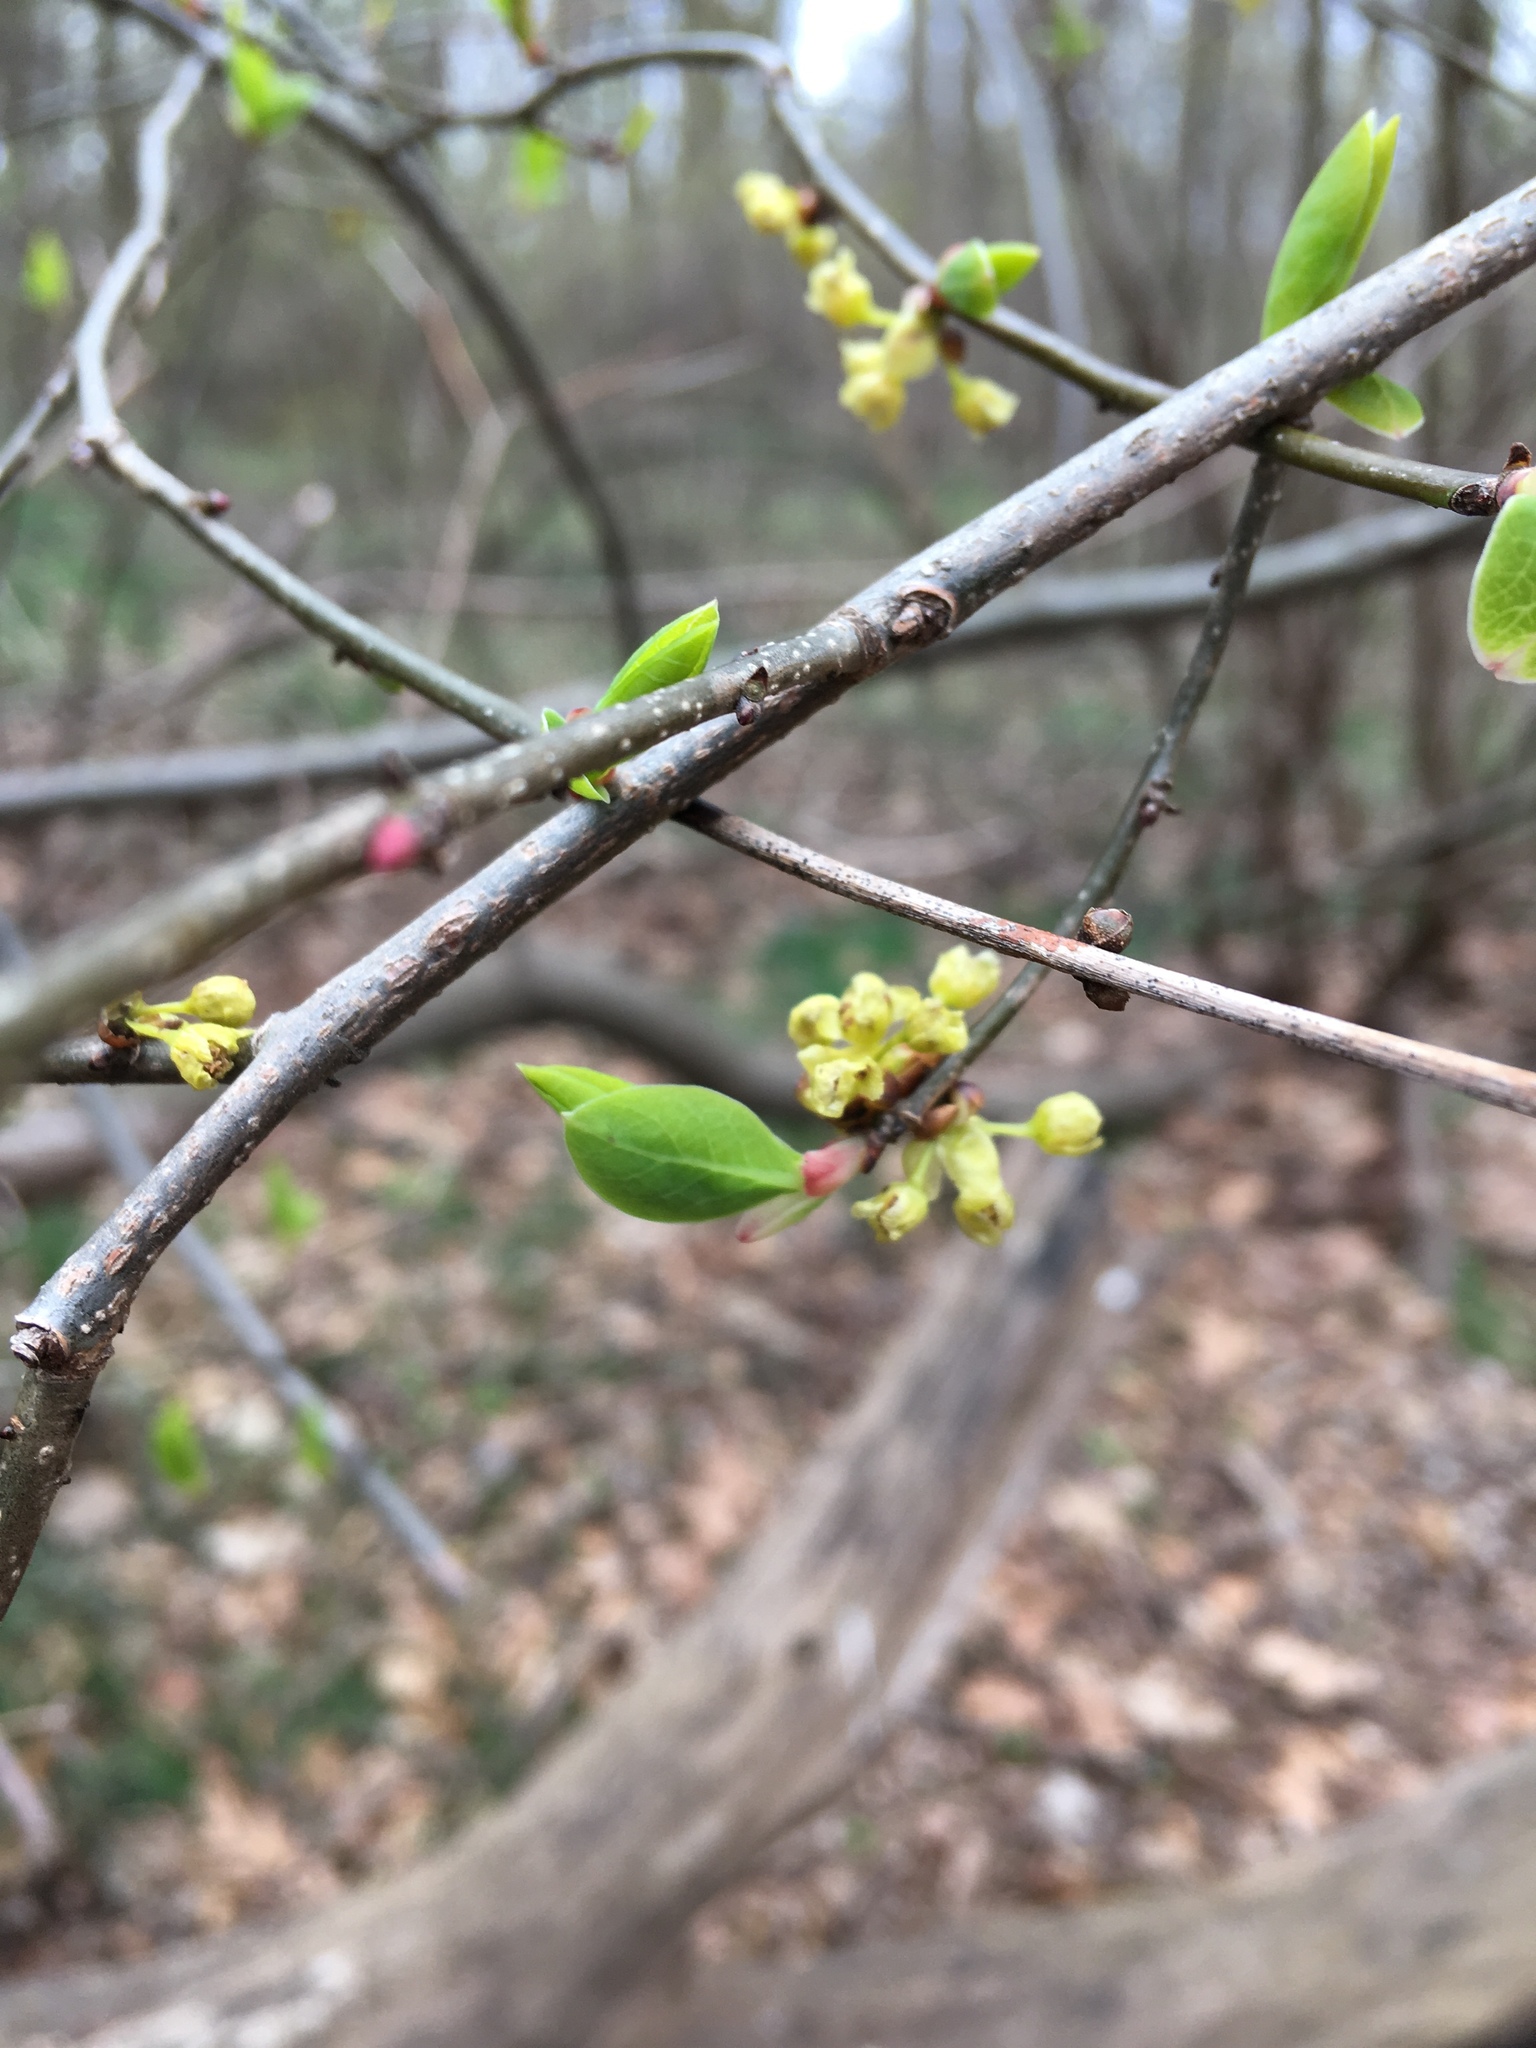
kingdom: Plantae
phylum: Tracheophyta
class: Magnoliopsida
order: Laurales
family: Lauraceae
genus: Lindera
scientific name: Lindera benzoin
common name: Spicebush
